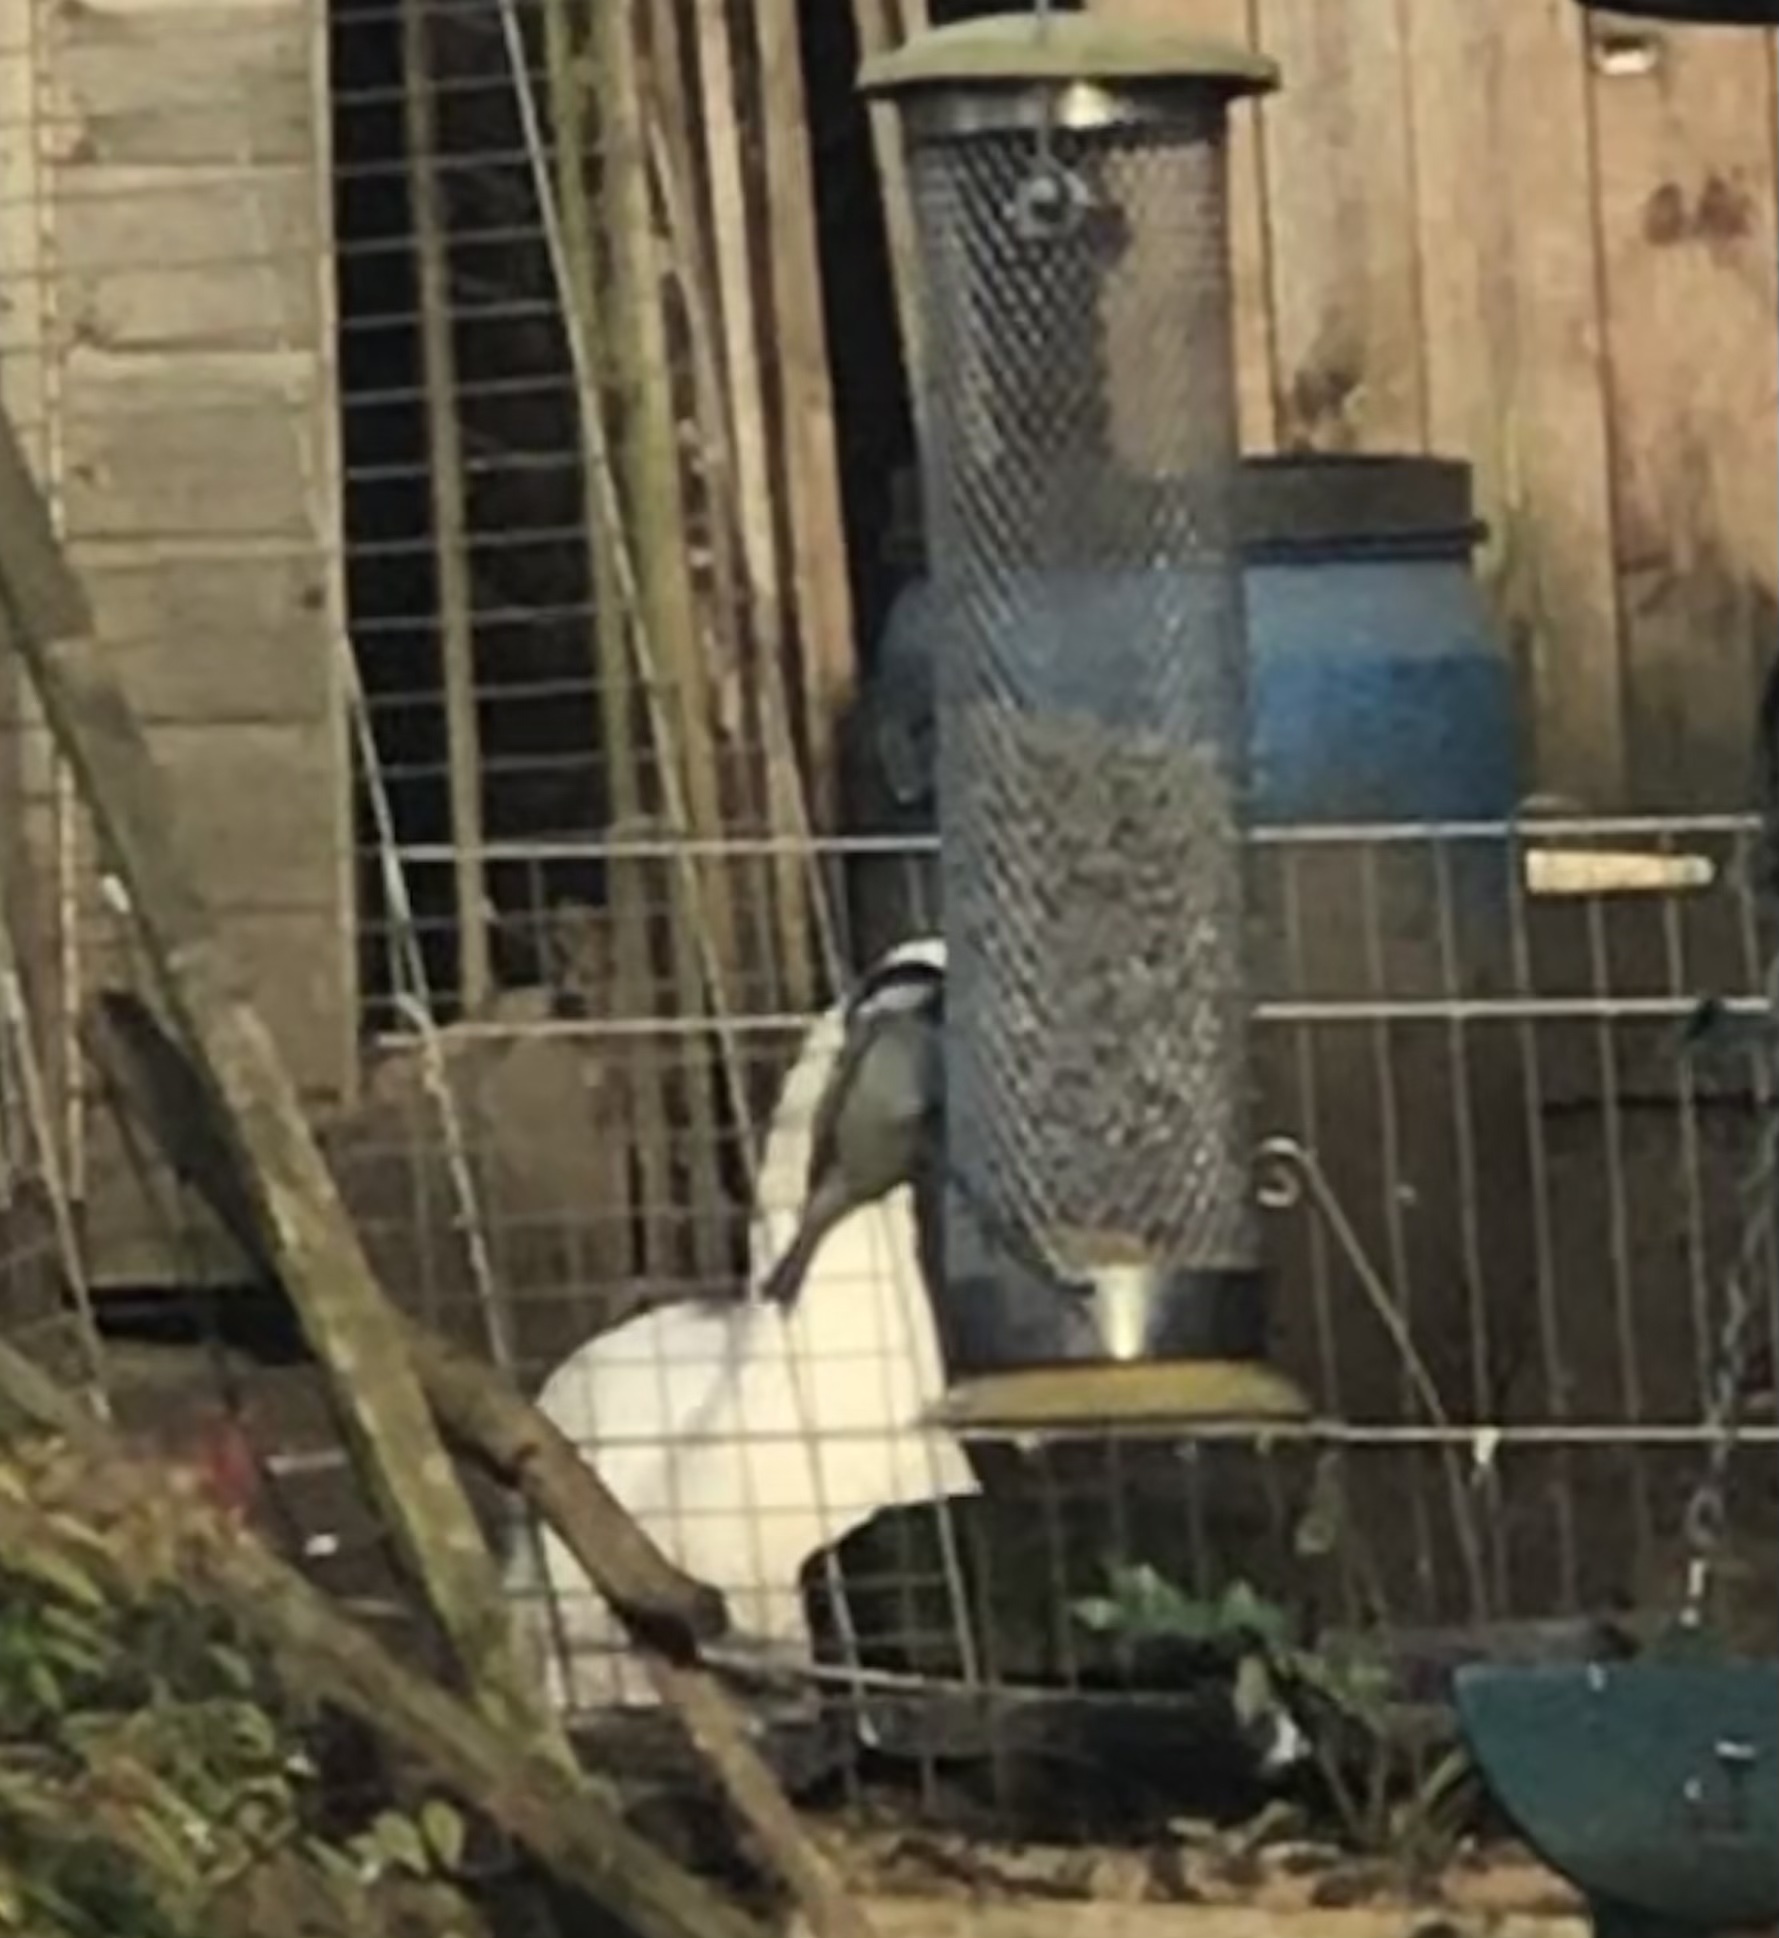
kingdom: Animalia
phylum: Chordata
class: Aves
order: Passeriformes
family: Paridae
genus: Periparus
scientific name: Periparus ater
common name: Coal tit
